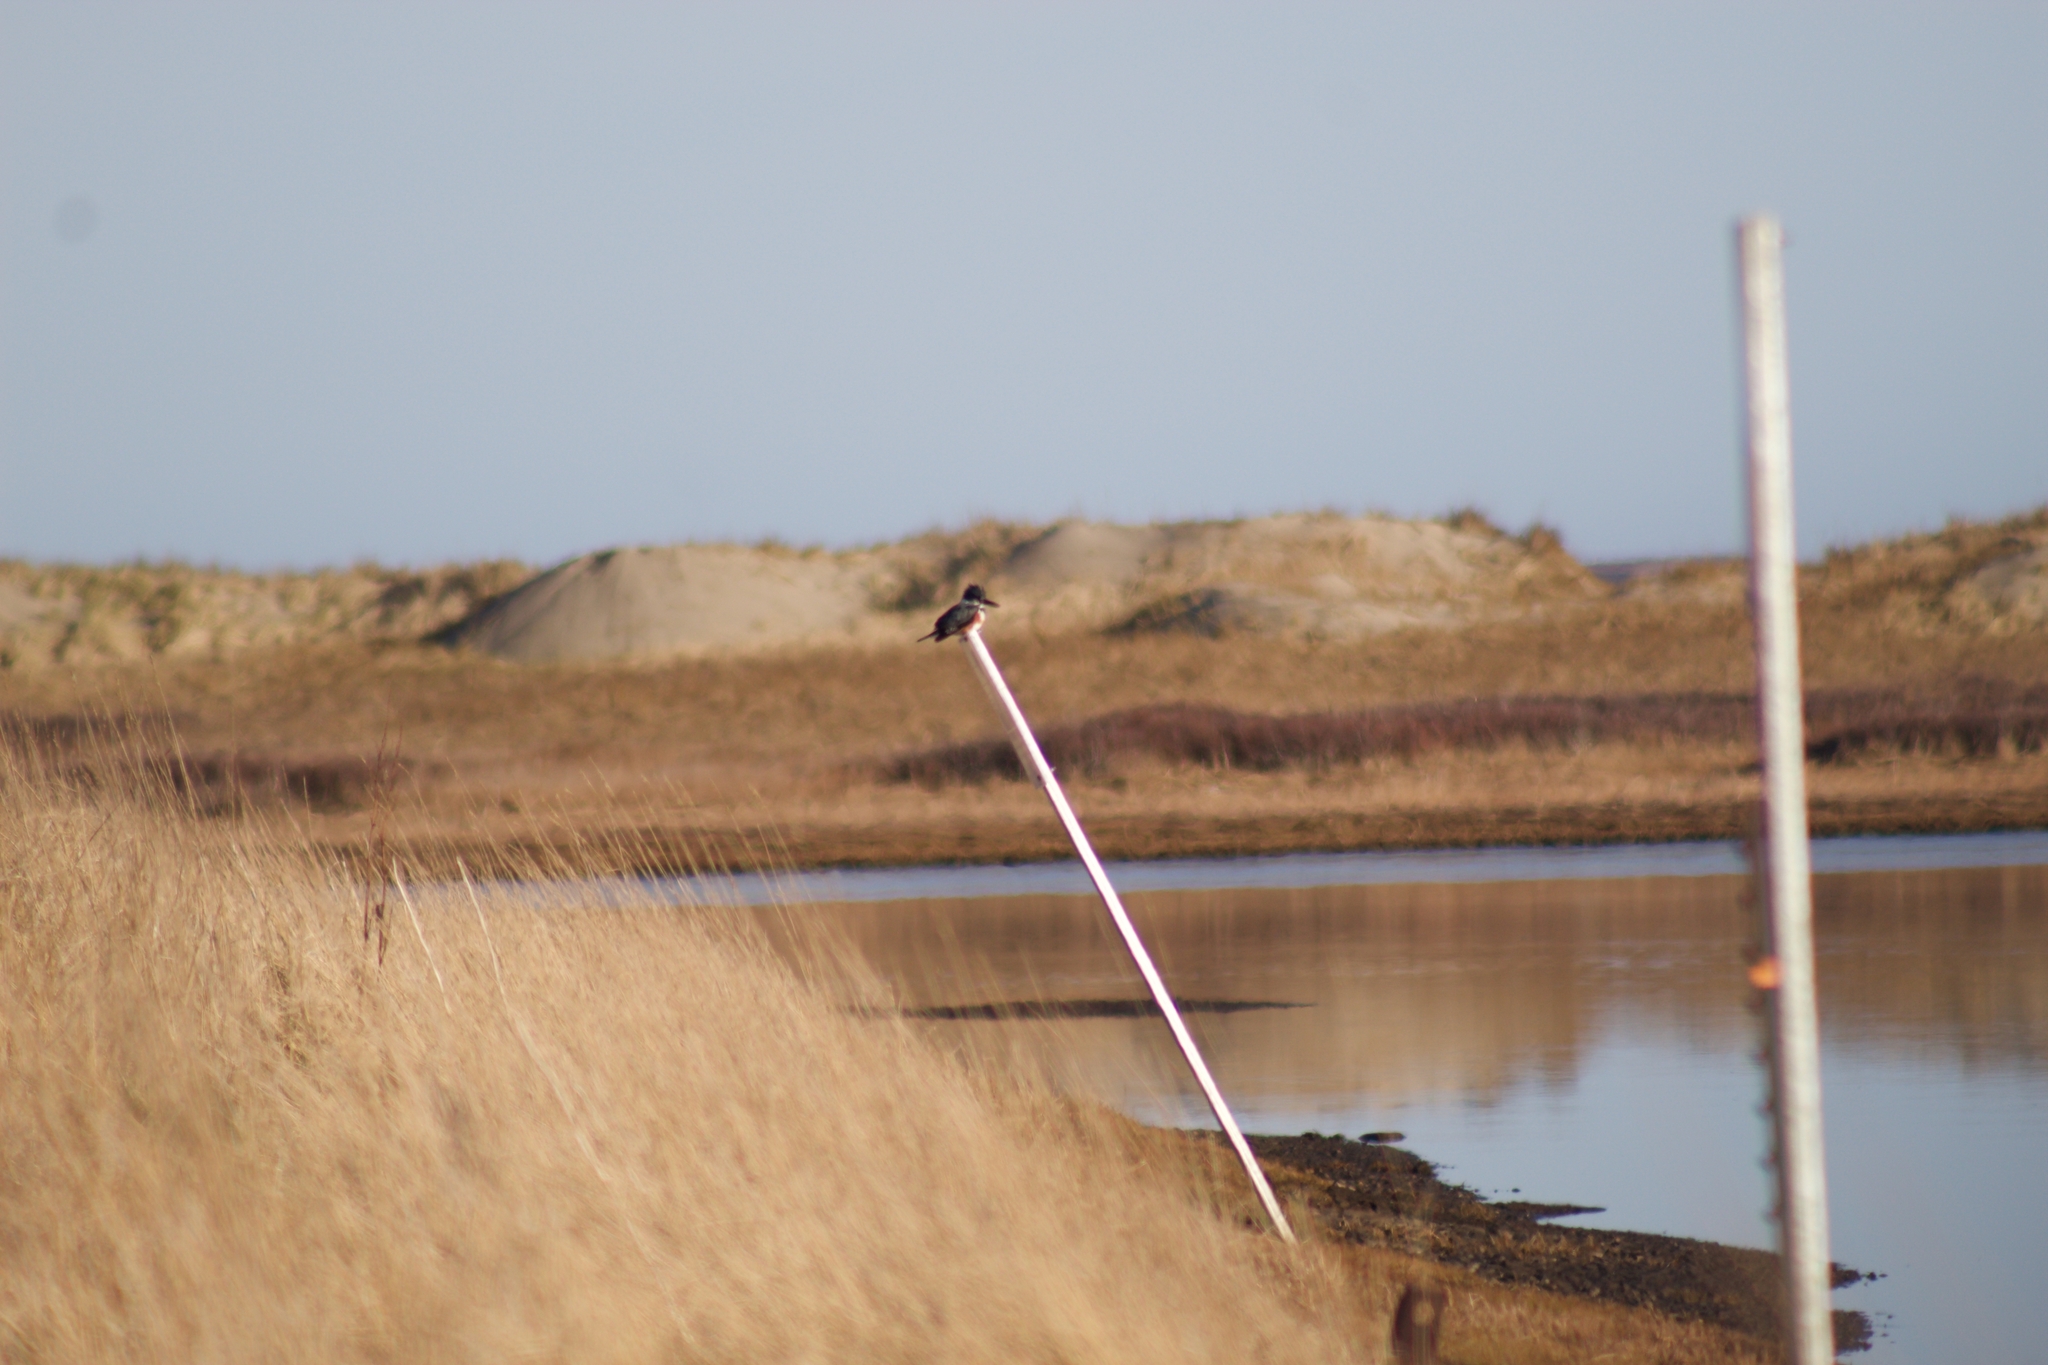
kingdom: Animalia
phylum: Chordata
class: Aves
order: Coraciiformes
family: Alcedinidae
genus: Megaceryle
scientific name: Megaceryle alcyon
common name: Belted kingfisher
